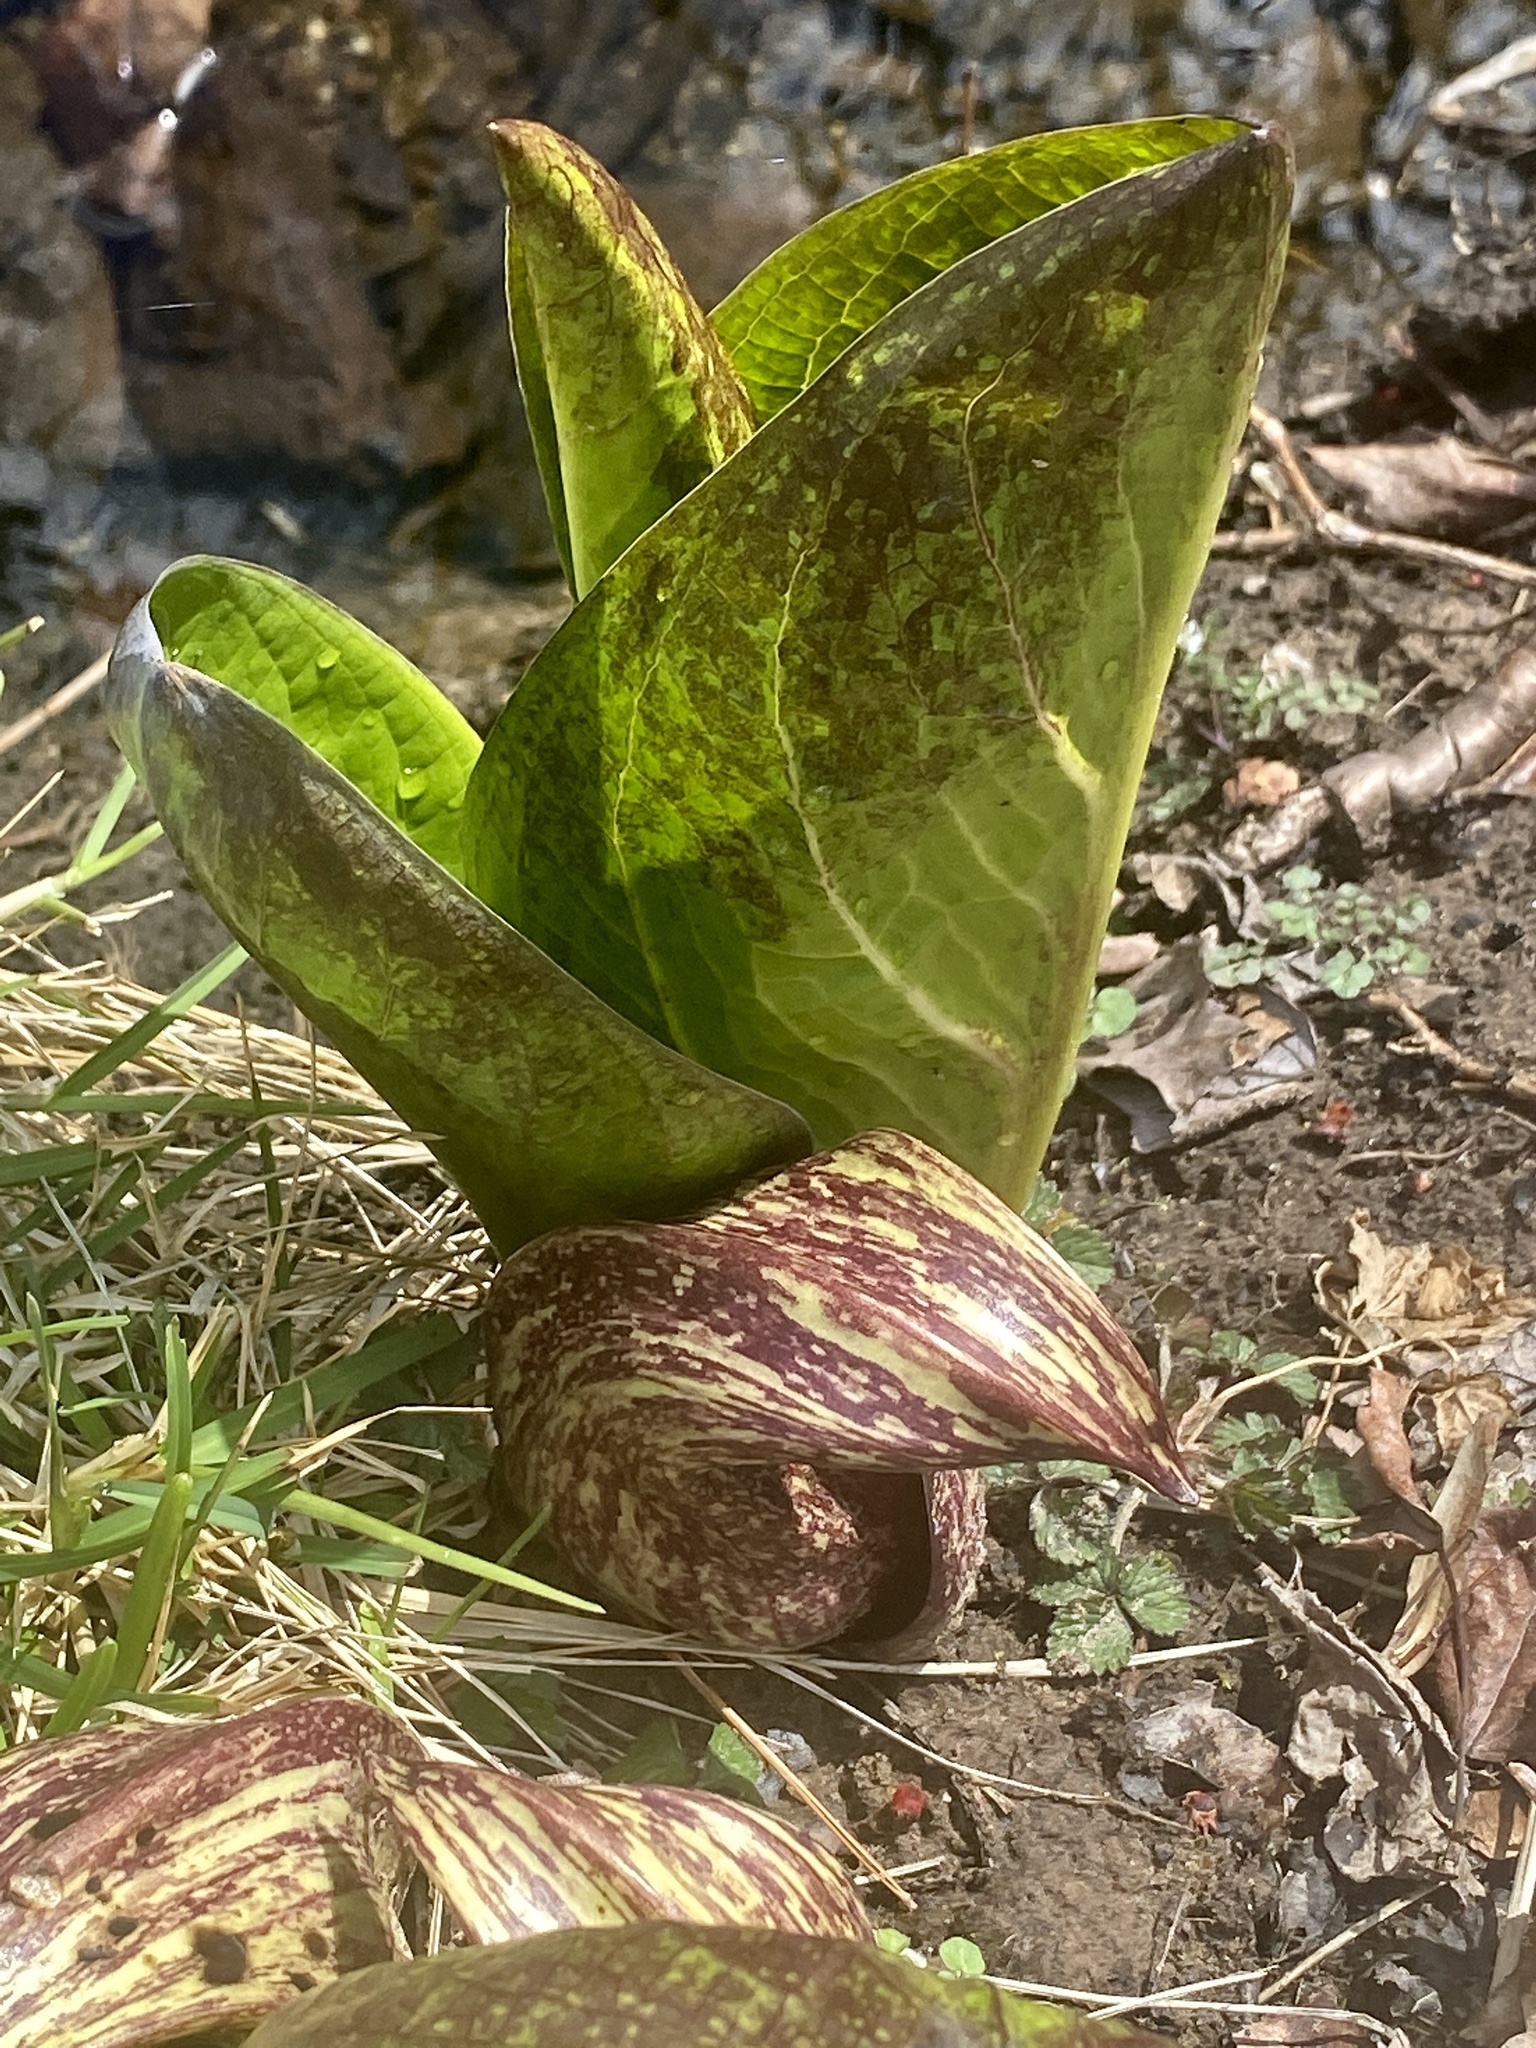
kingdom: Plantae
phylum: Tracheophyta
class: Liliopsida
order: Alismatales
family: Araceae
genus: Symplocarpus
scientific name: Symplocarpus foetidus
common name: Eastern skunk cabbage
